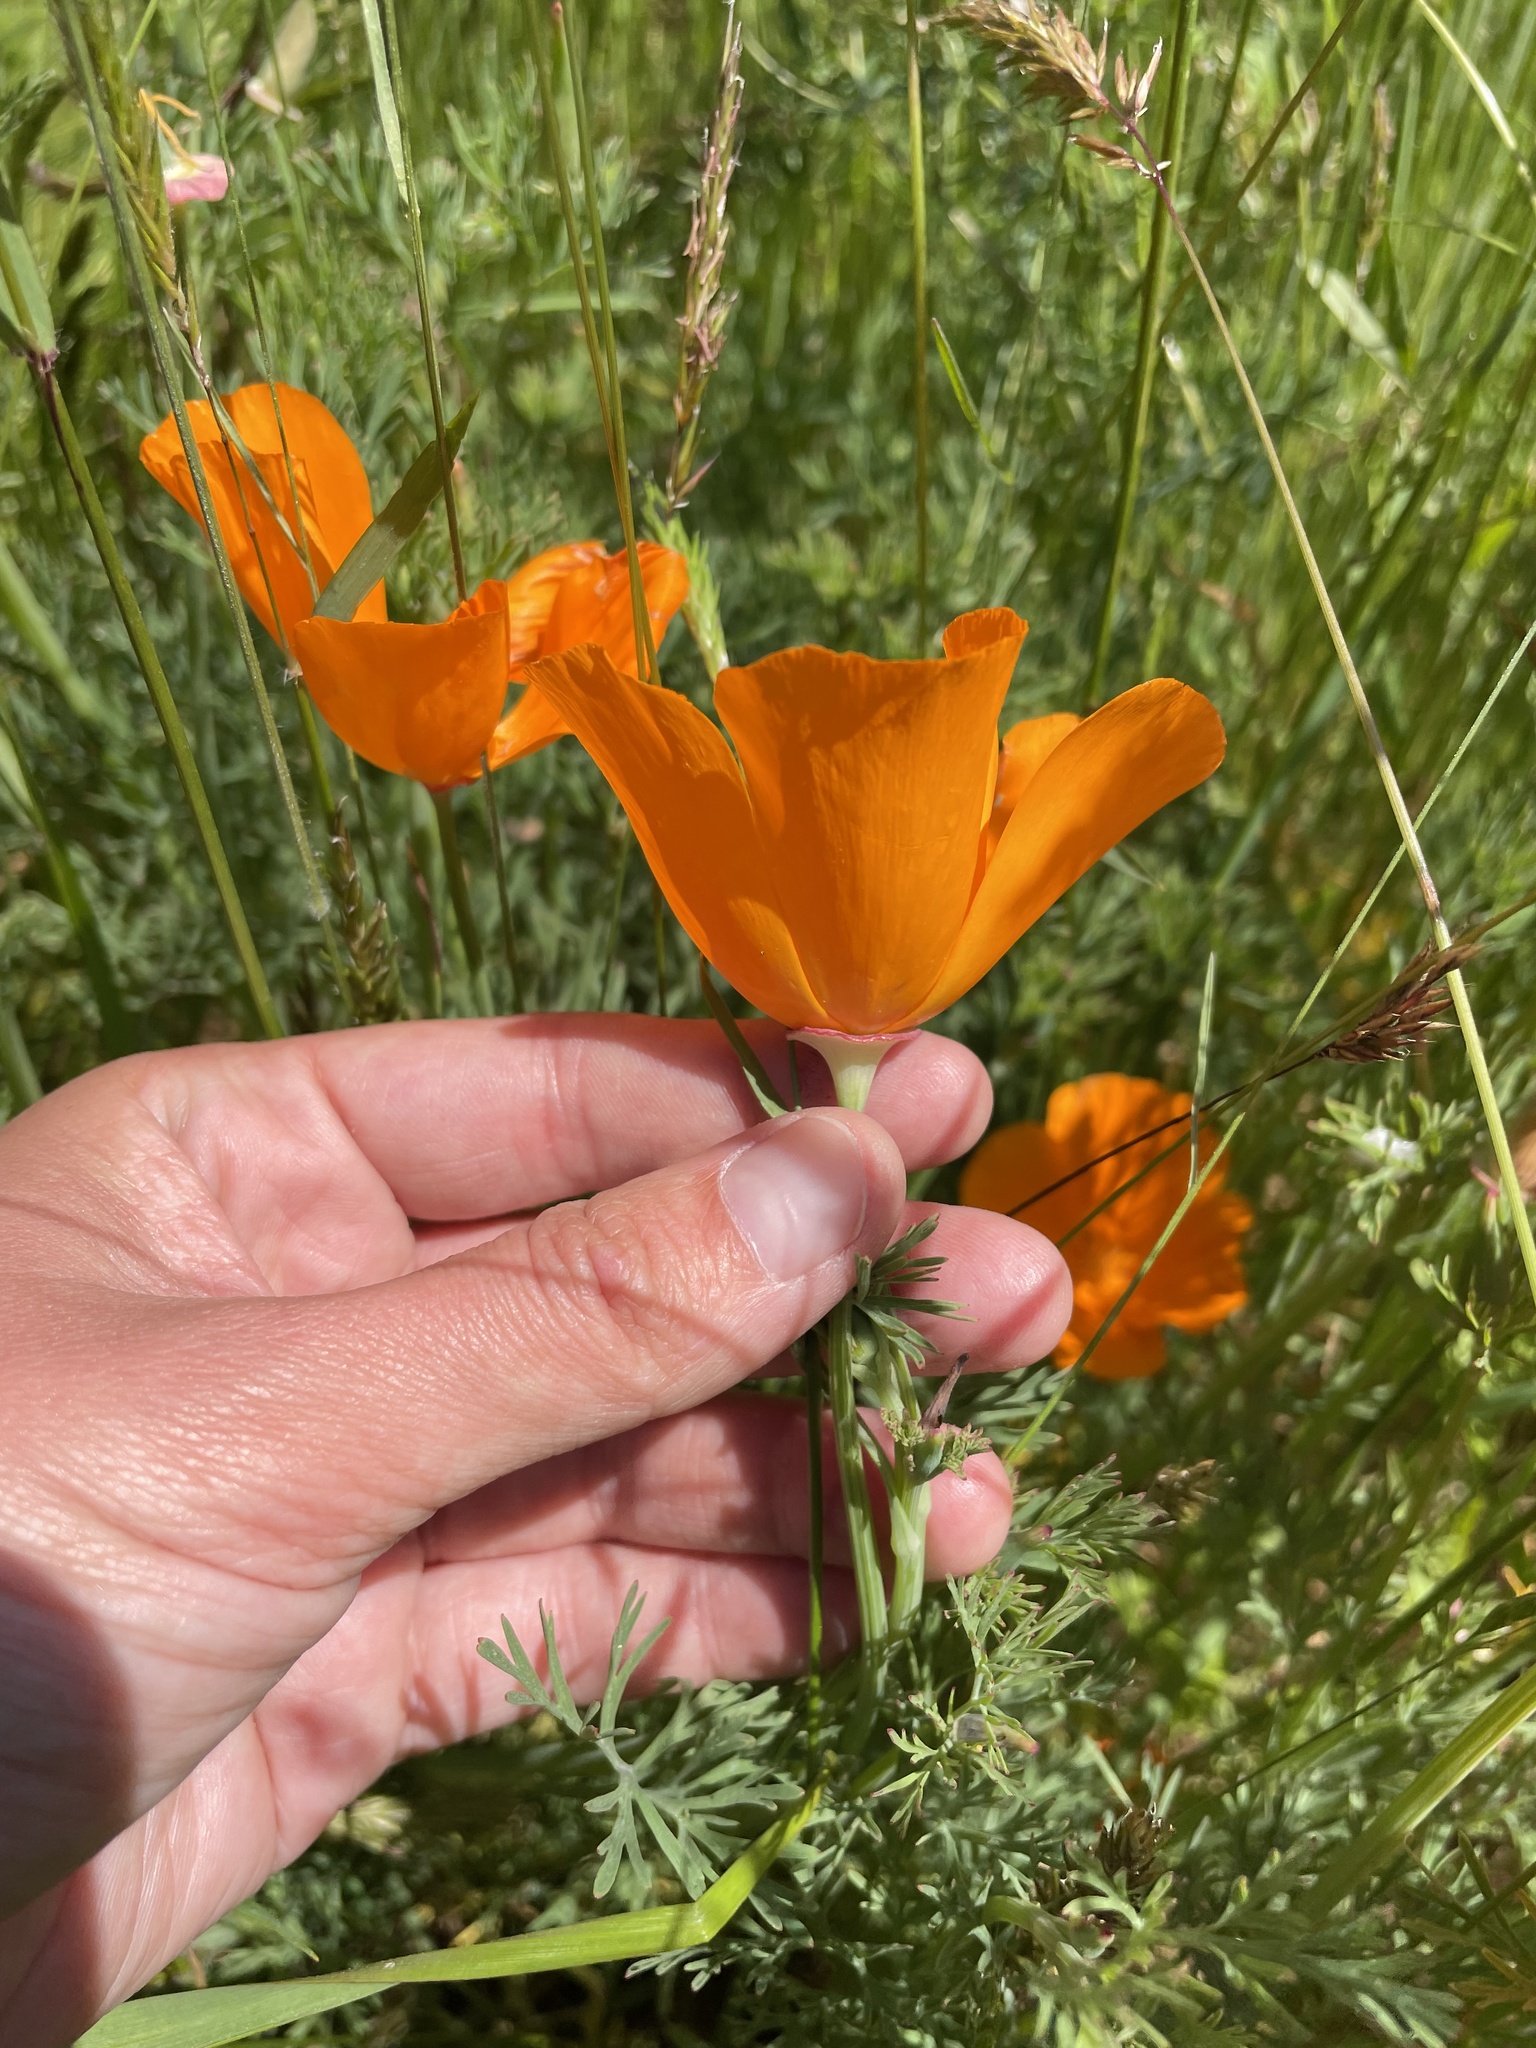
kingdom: Plantae
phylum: Tracheophyta
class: Magnoliopsida
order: Ranunculales
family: Papaveraceae
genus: Eschscholzia
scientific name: Eschscholzia californica
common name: California poppy
